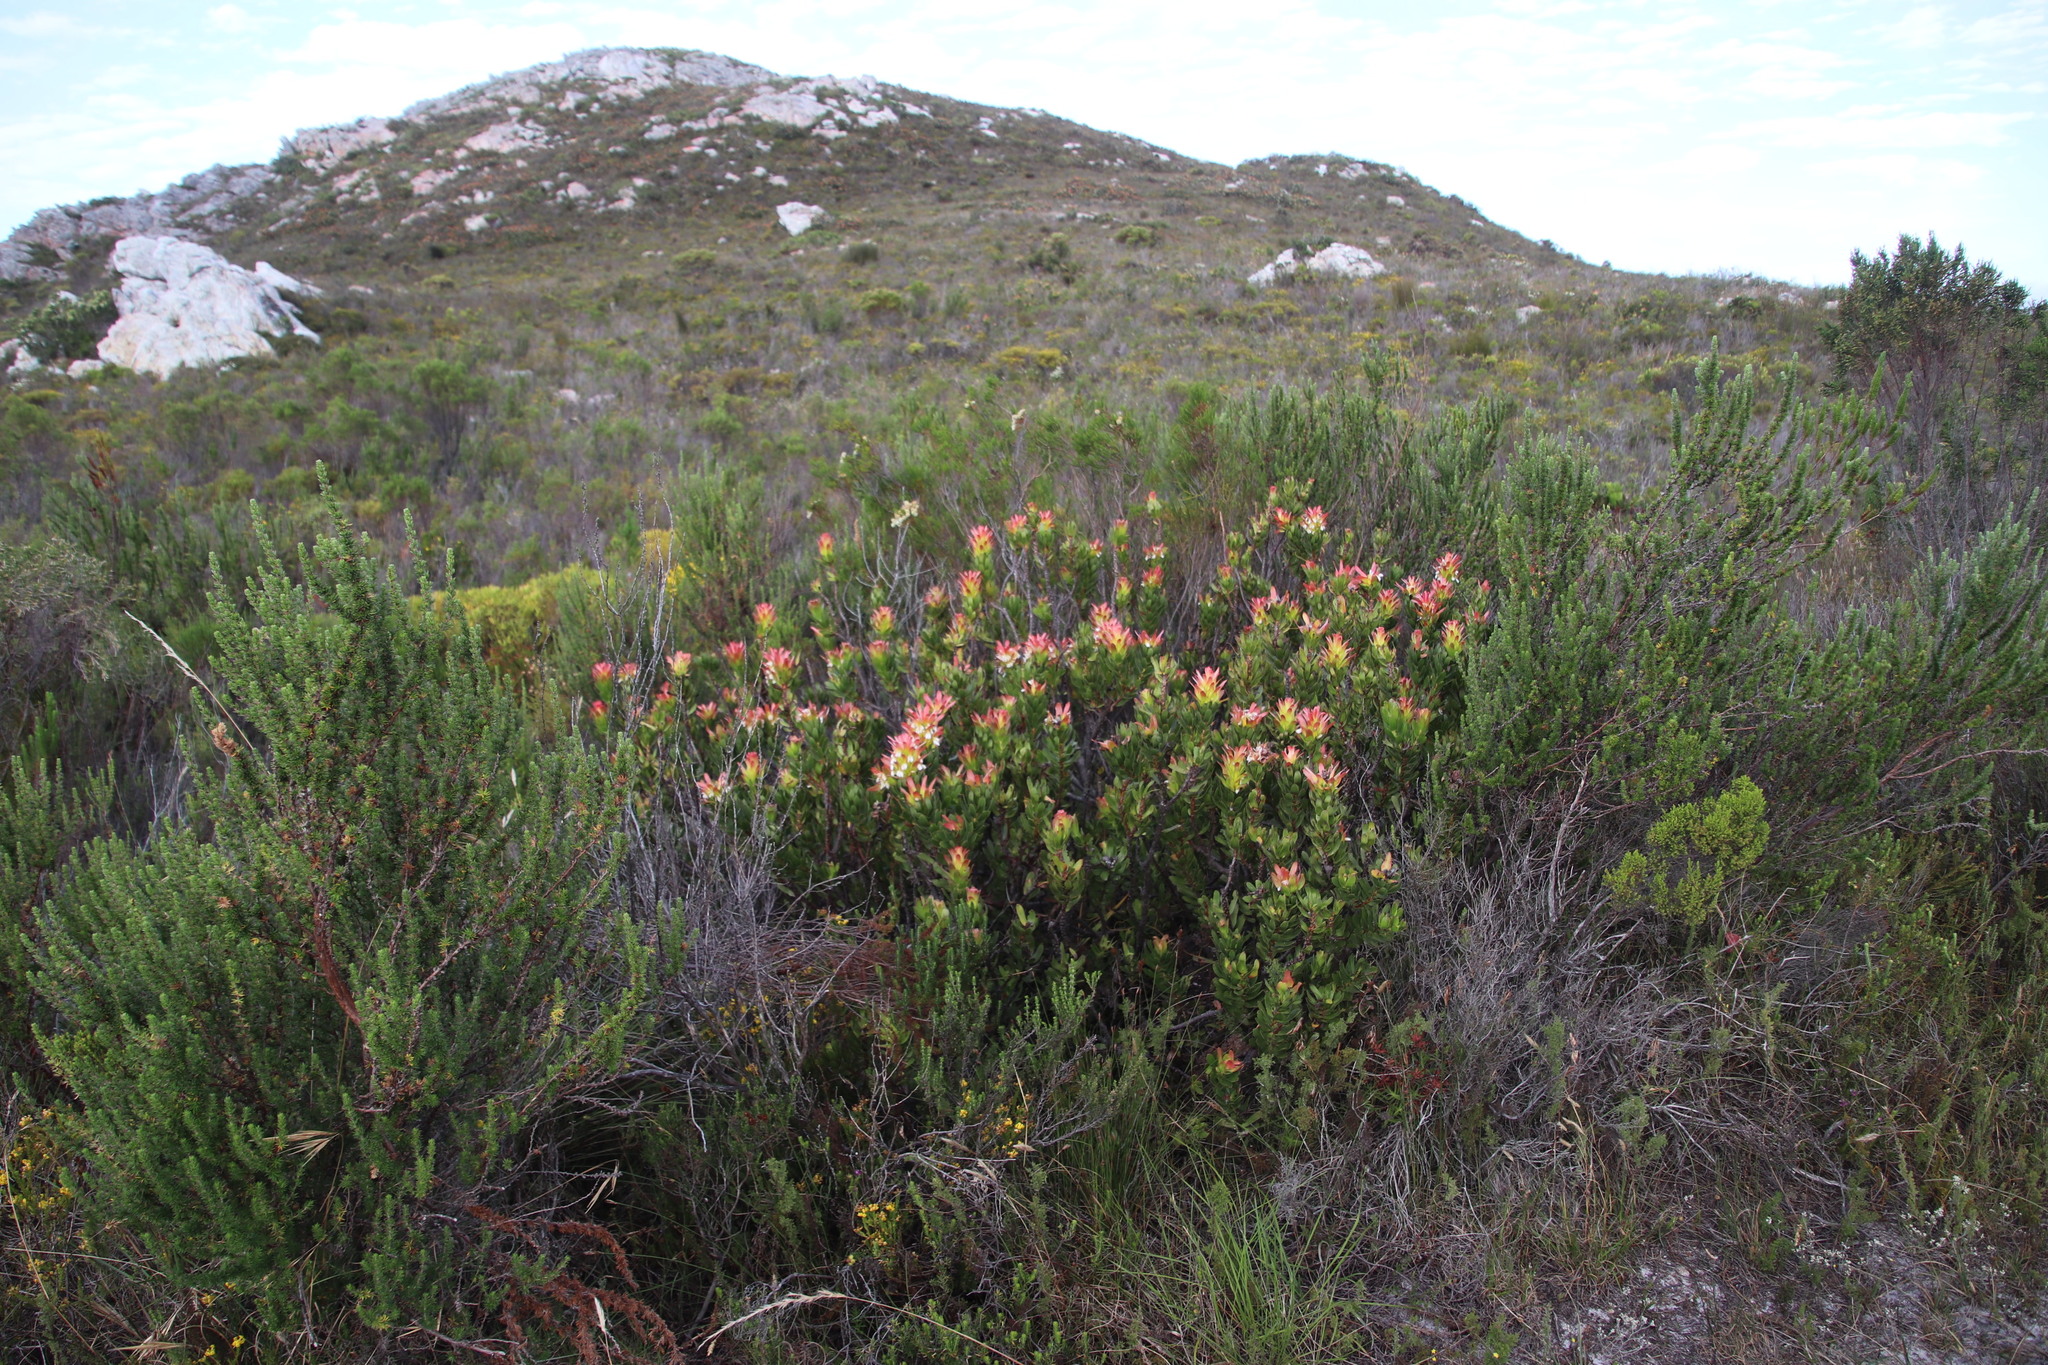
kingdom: Plantae
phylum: Tracheophyta
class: Magnoliopsida
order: Proteales
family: Proteaceae
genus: Mimetes
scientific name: Mimetes cucullatus
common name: Common pagoda
